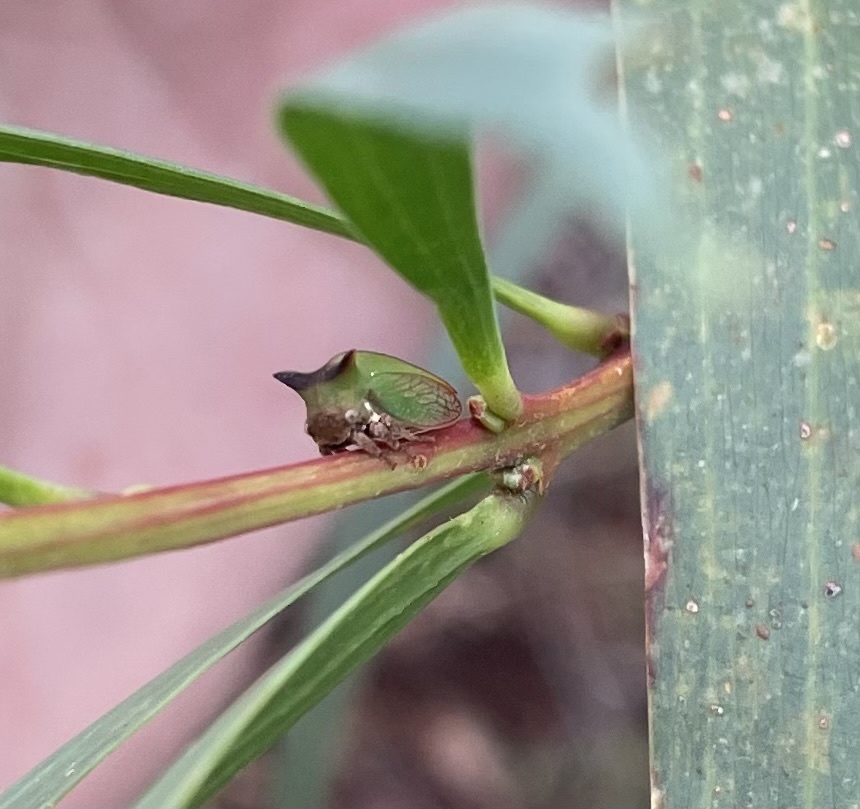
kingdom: Animalia
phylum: Arthropoda
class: Insecta
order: Hemiptera
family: Membracidae
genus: Sextius
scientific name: Sextius virescens
